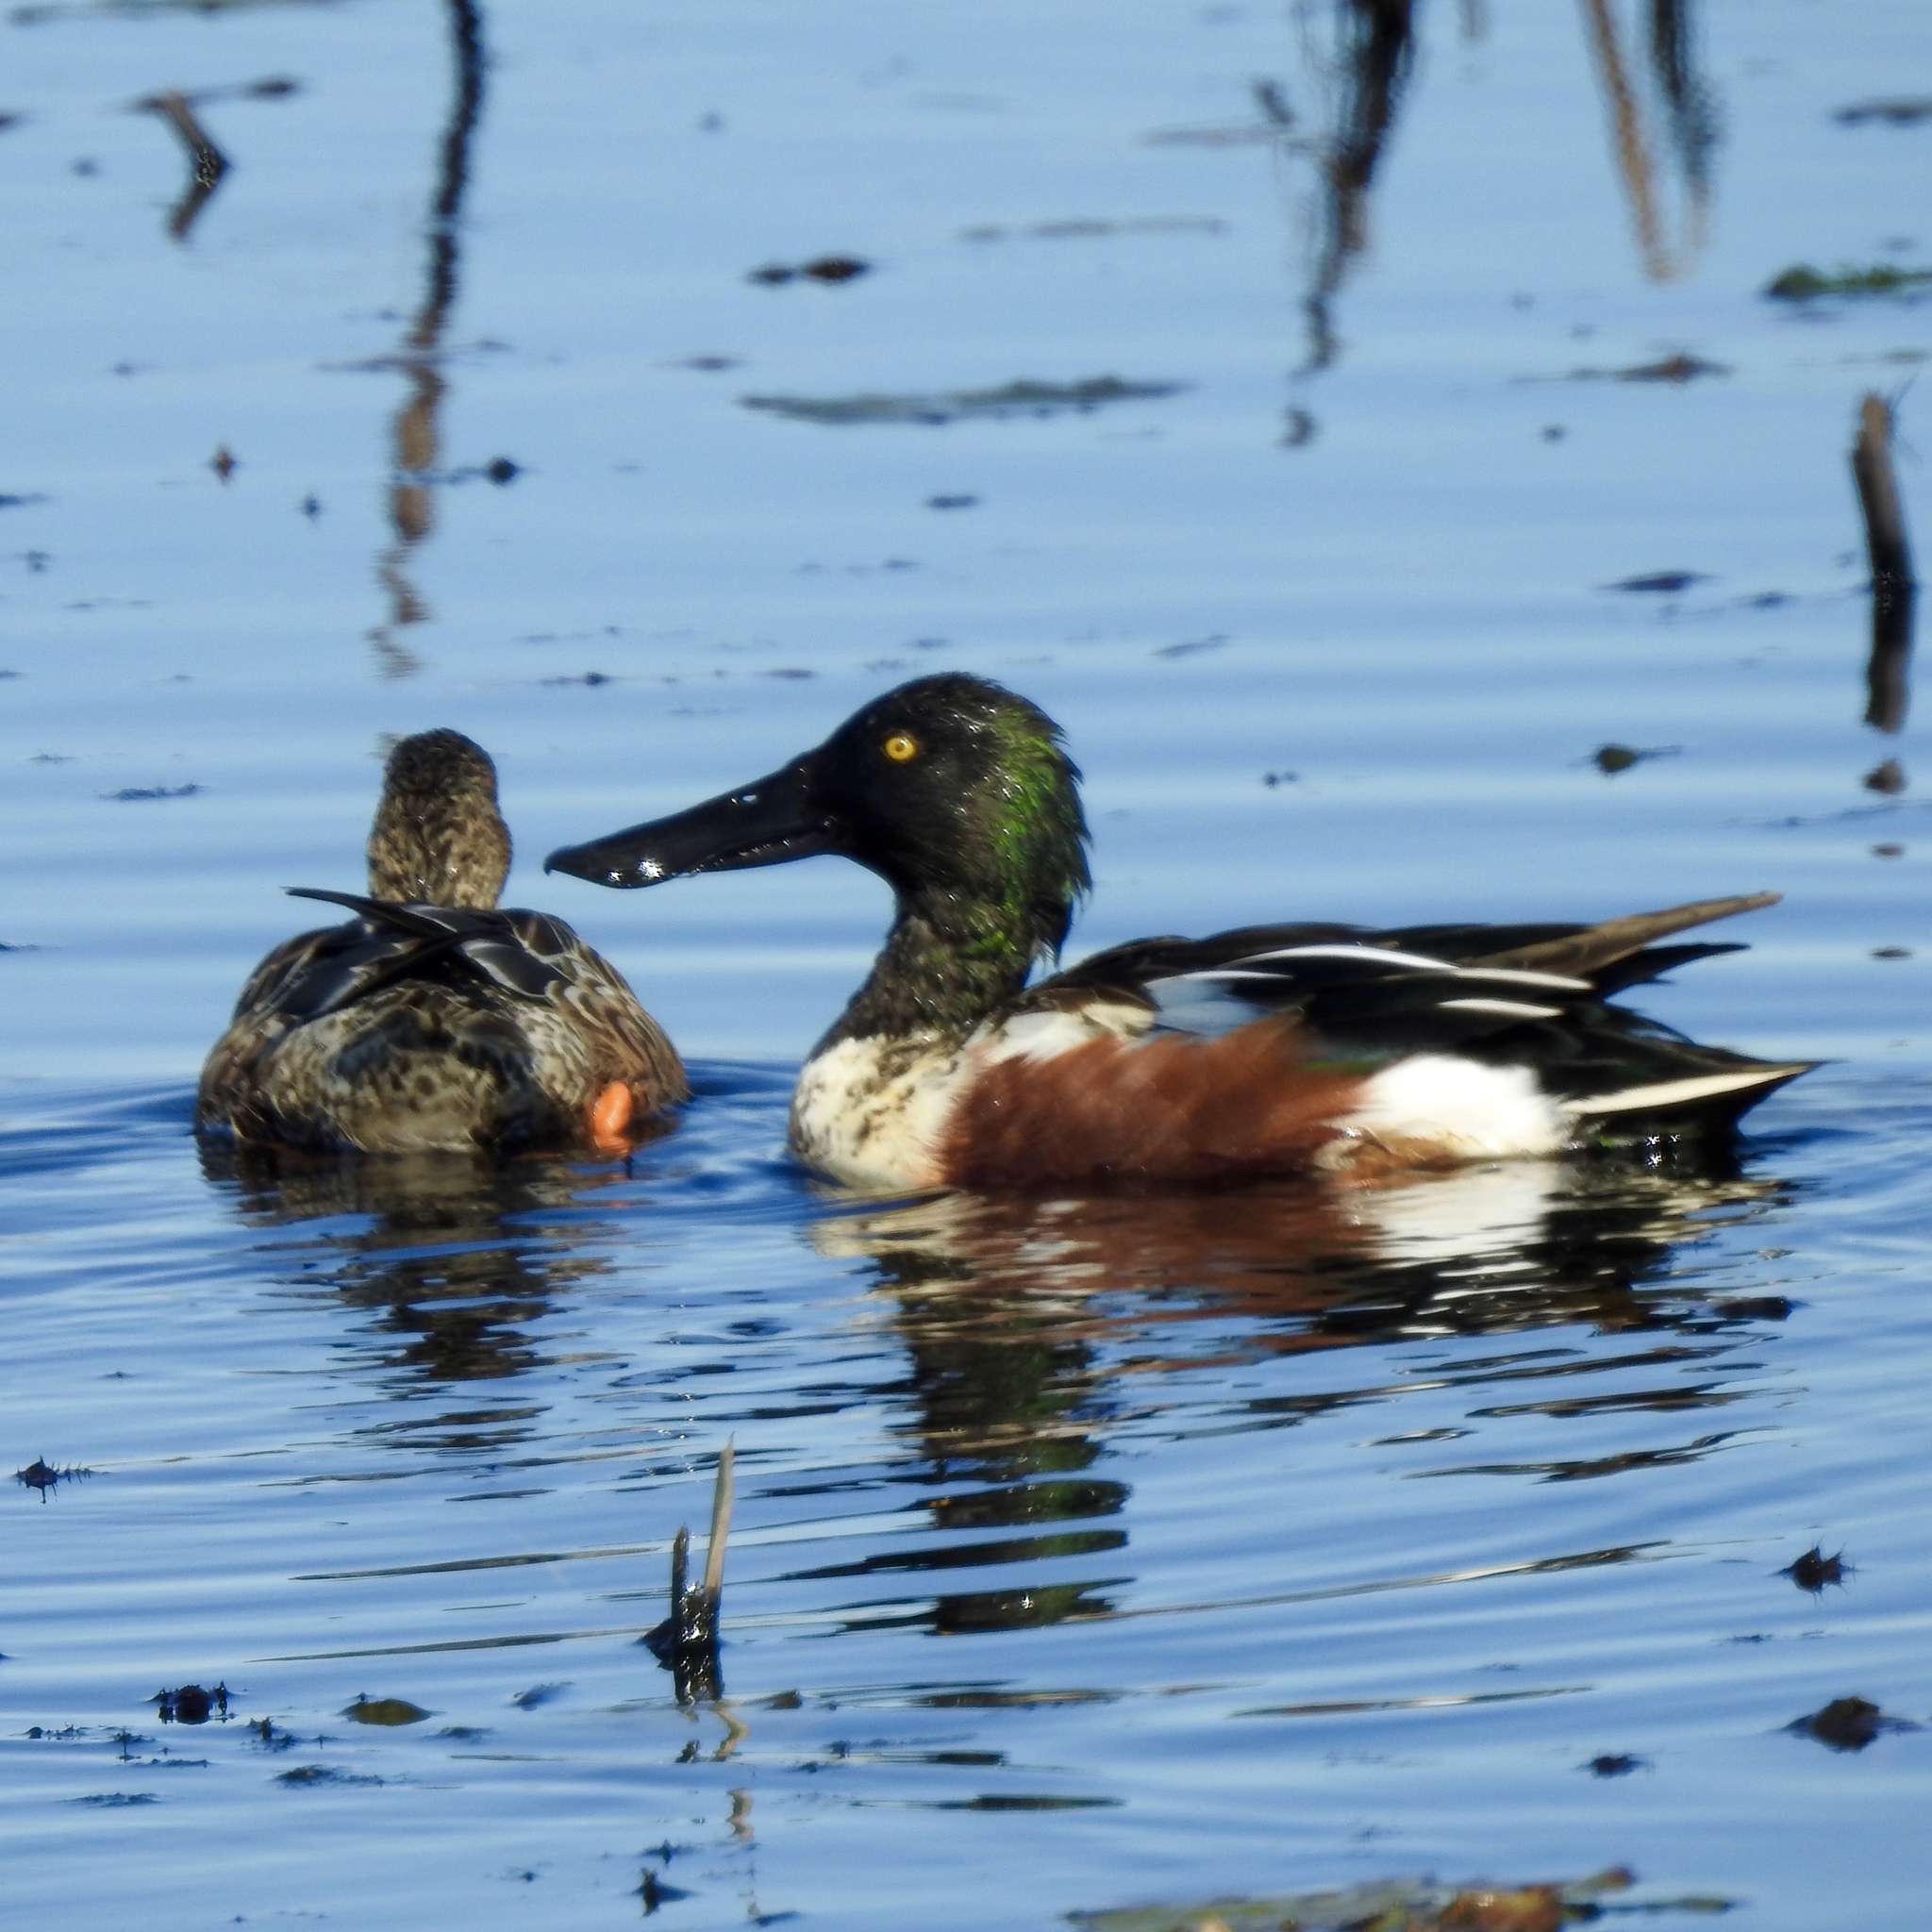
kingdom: Animalia
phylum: Chordata
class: Aves
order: Anseriformes
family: Anatidae
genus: Spatula
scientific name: Spatula clypeata
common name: Northern shoveler
